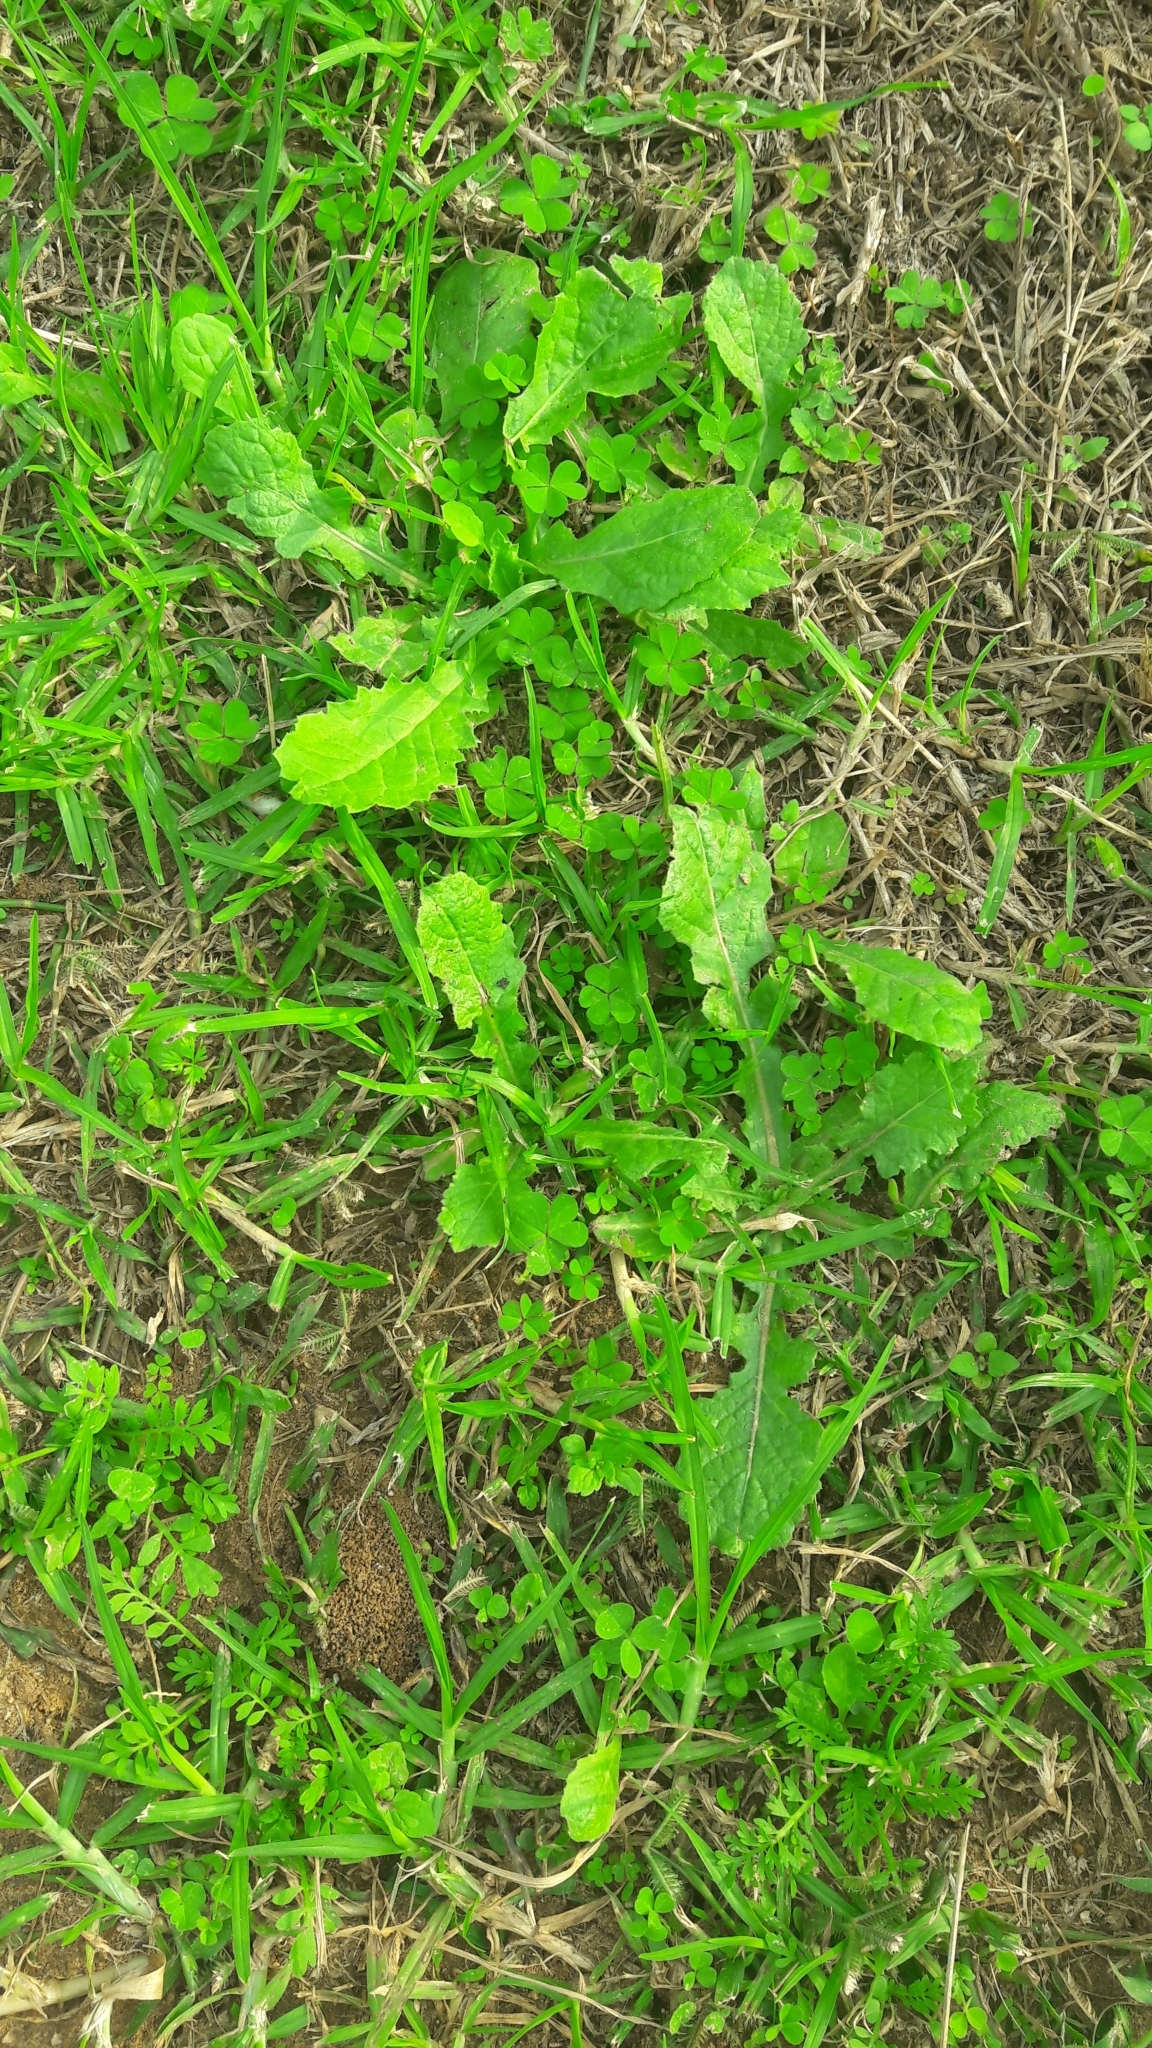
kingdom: Plantae
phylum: Tracheophyta
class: Magnoliopsida
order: Oxalidales
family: Oxalidaceae
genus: Oxalis
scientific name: Oxalis corniculata
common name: Procumbent yellow-sorrel
